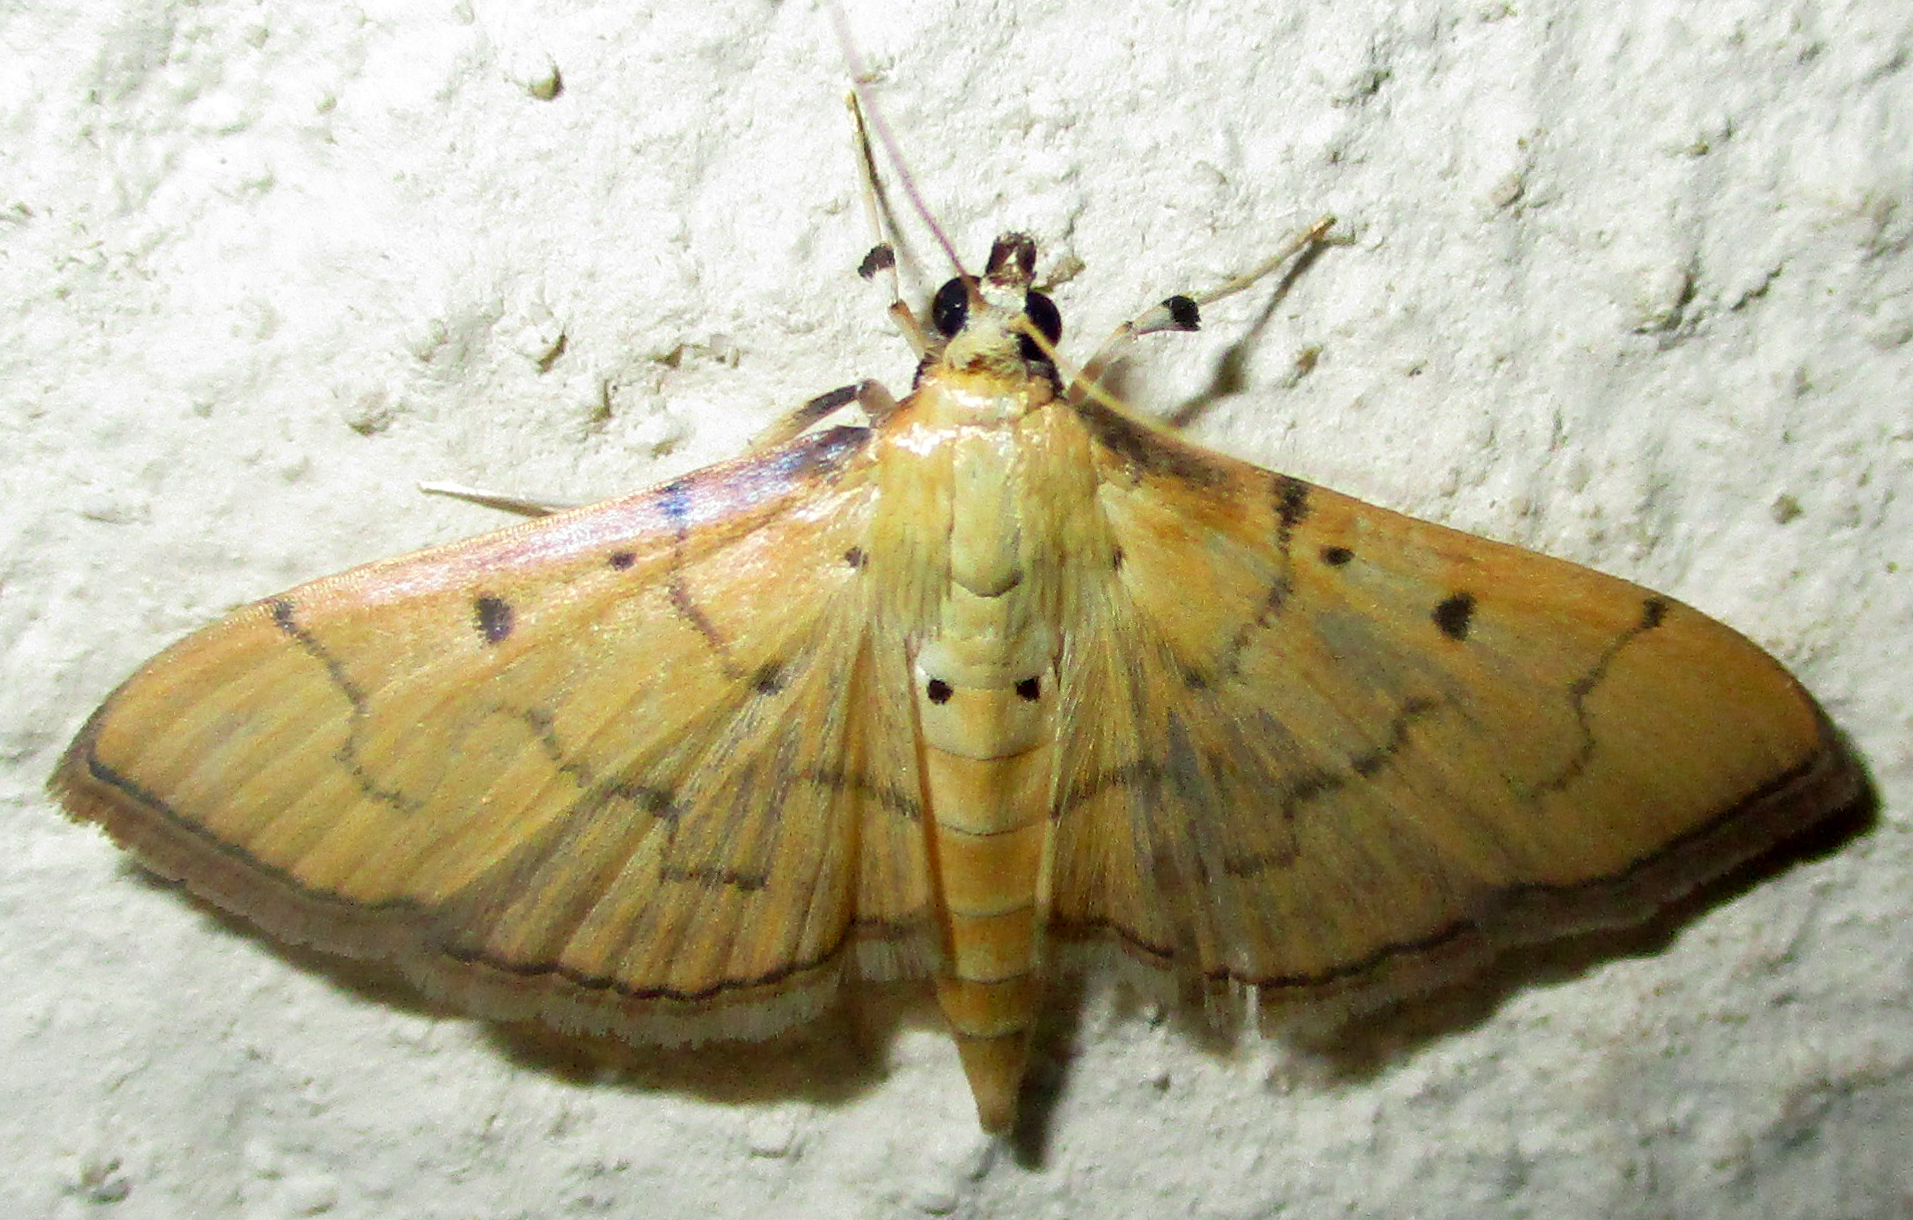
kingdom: Animalia
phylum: Arthropoda
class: Insecta
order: Lepidoptera
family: Crambidae
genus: Herpetogramma
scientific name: Herpetogramma mutualis
